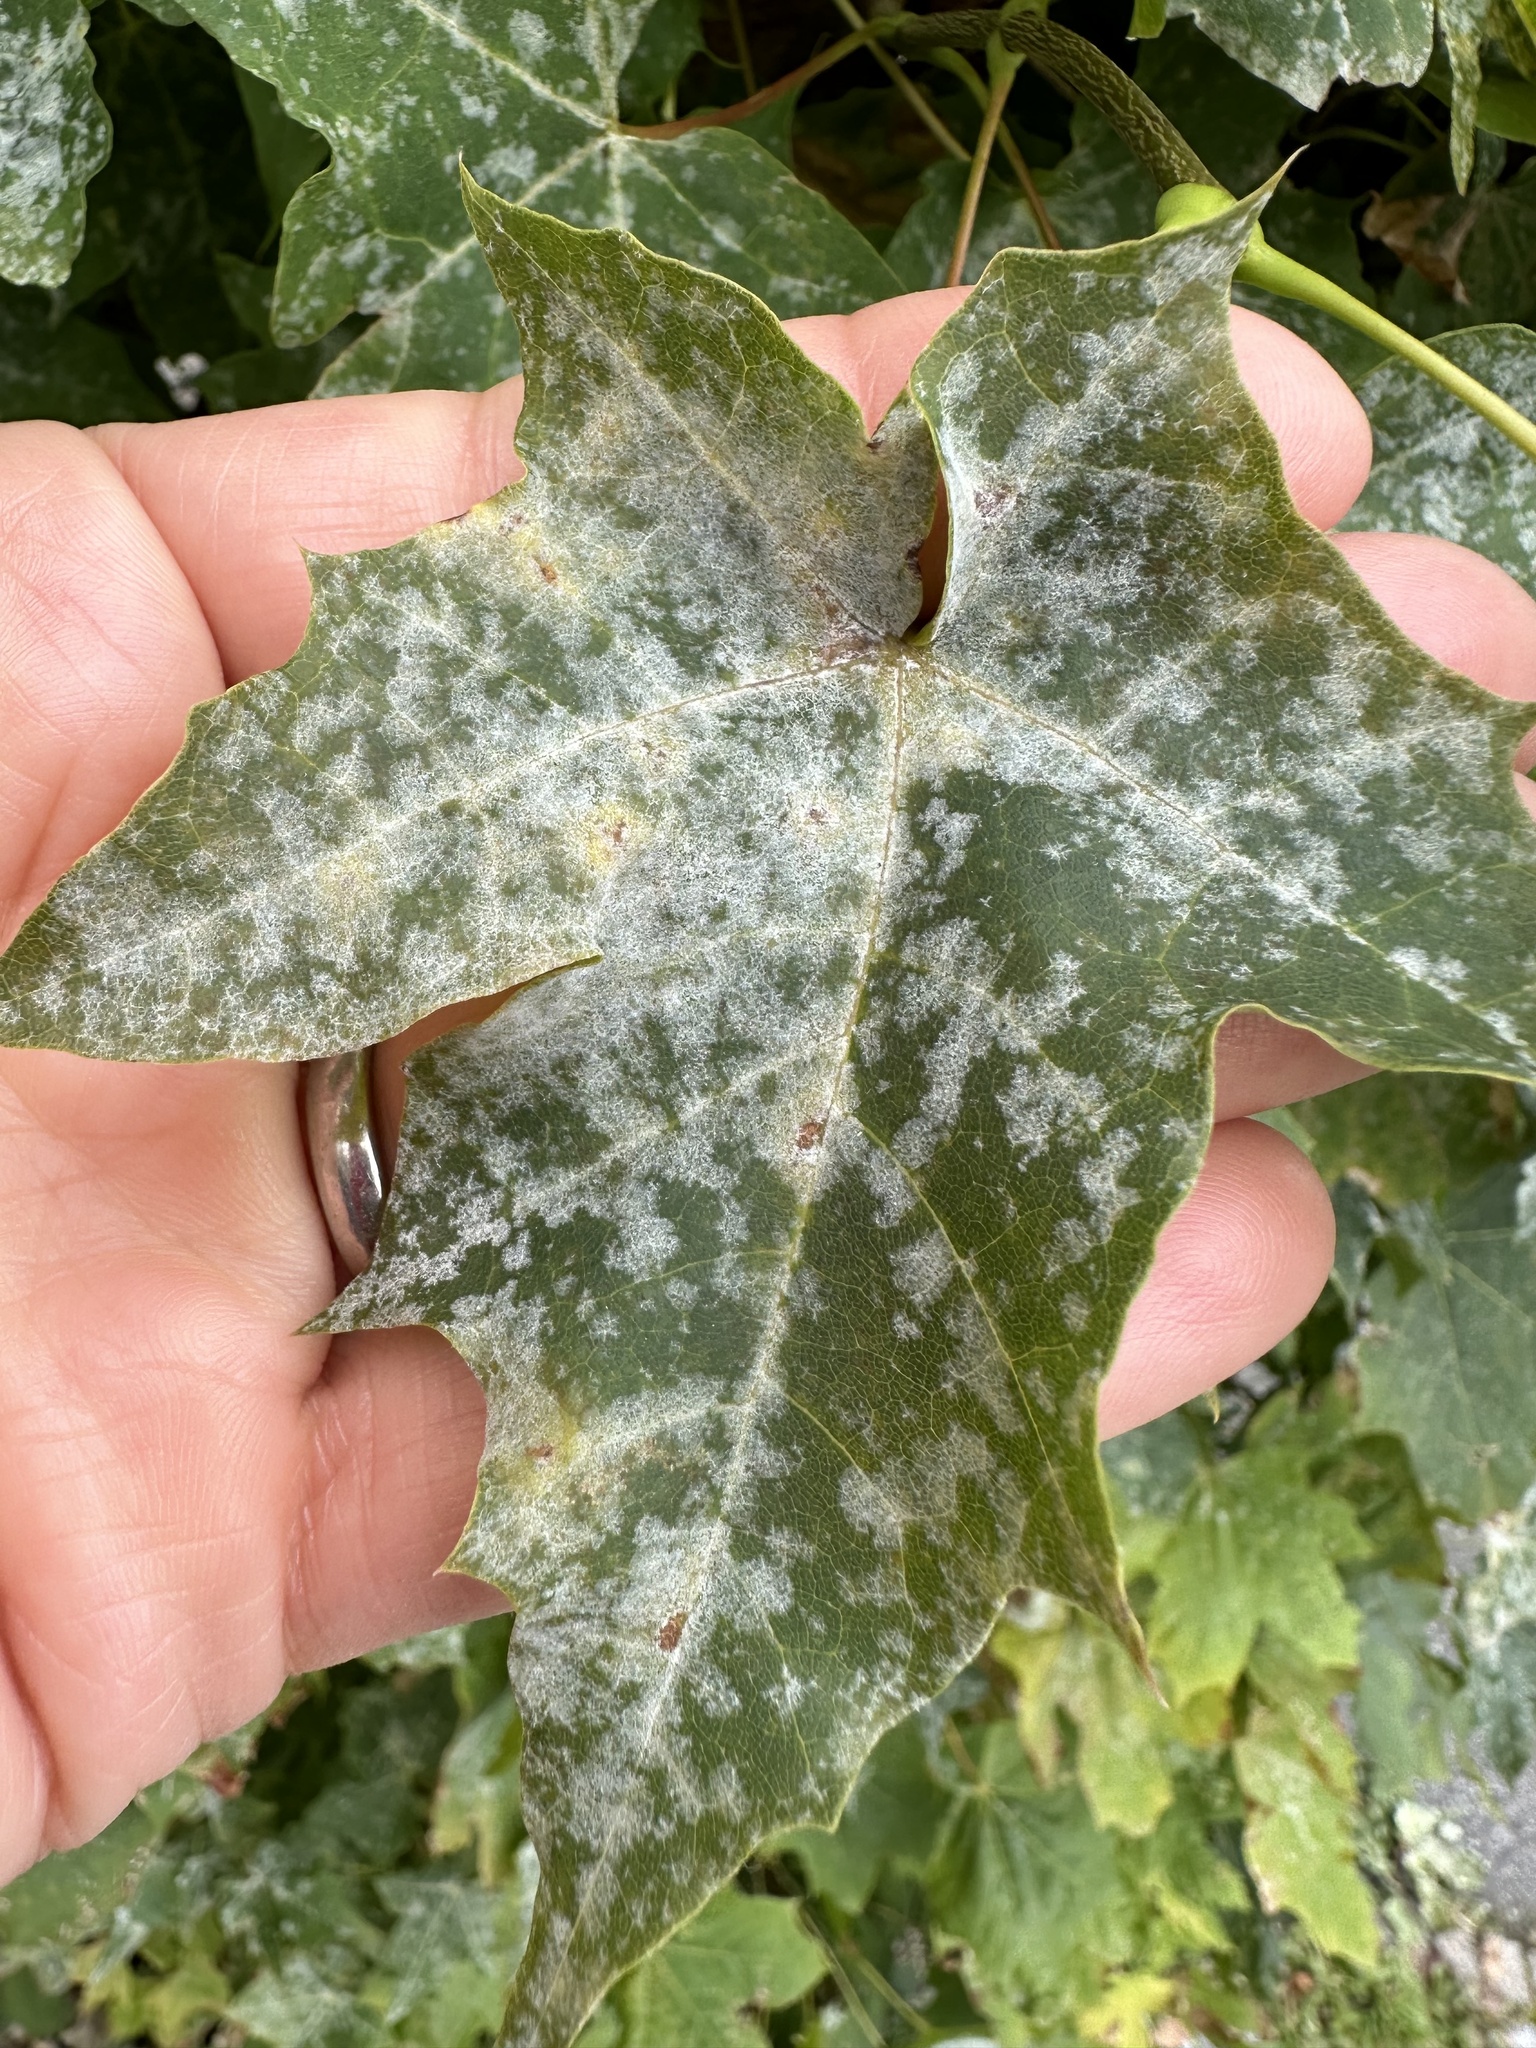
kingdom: Fungi
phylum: Ascomycota
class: Leotiomycetes
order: Helotiales
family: Erysiphaceae
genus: Sawadaea
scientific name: Sawadaea tulasnei
